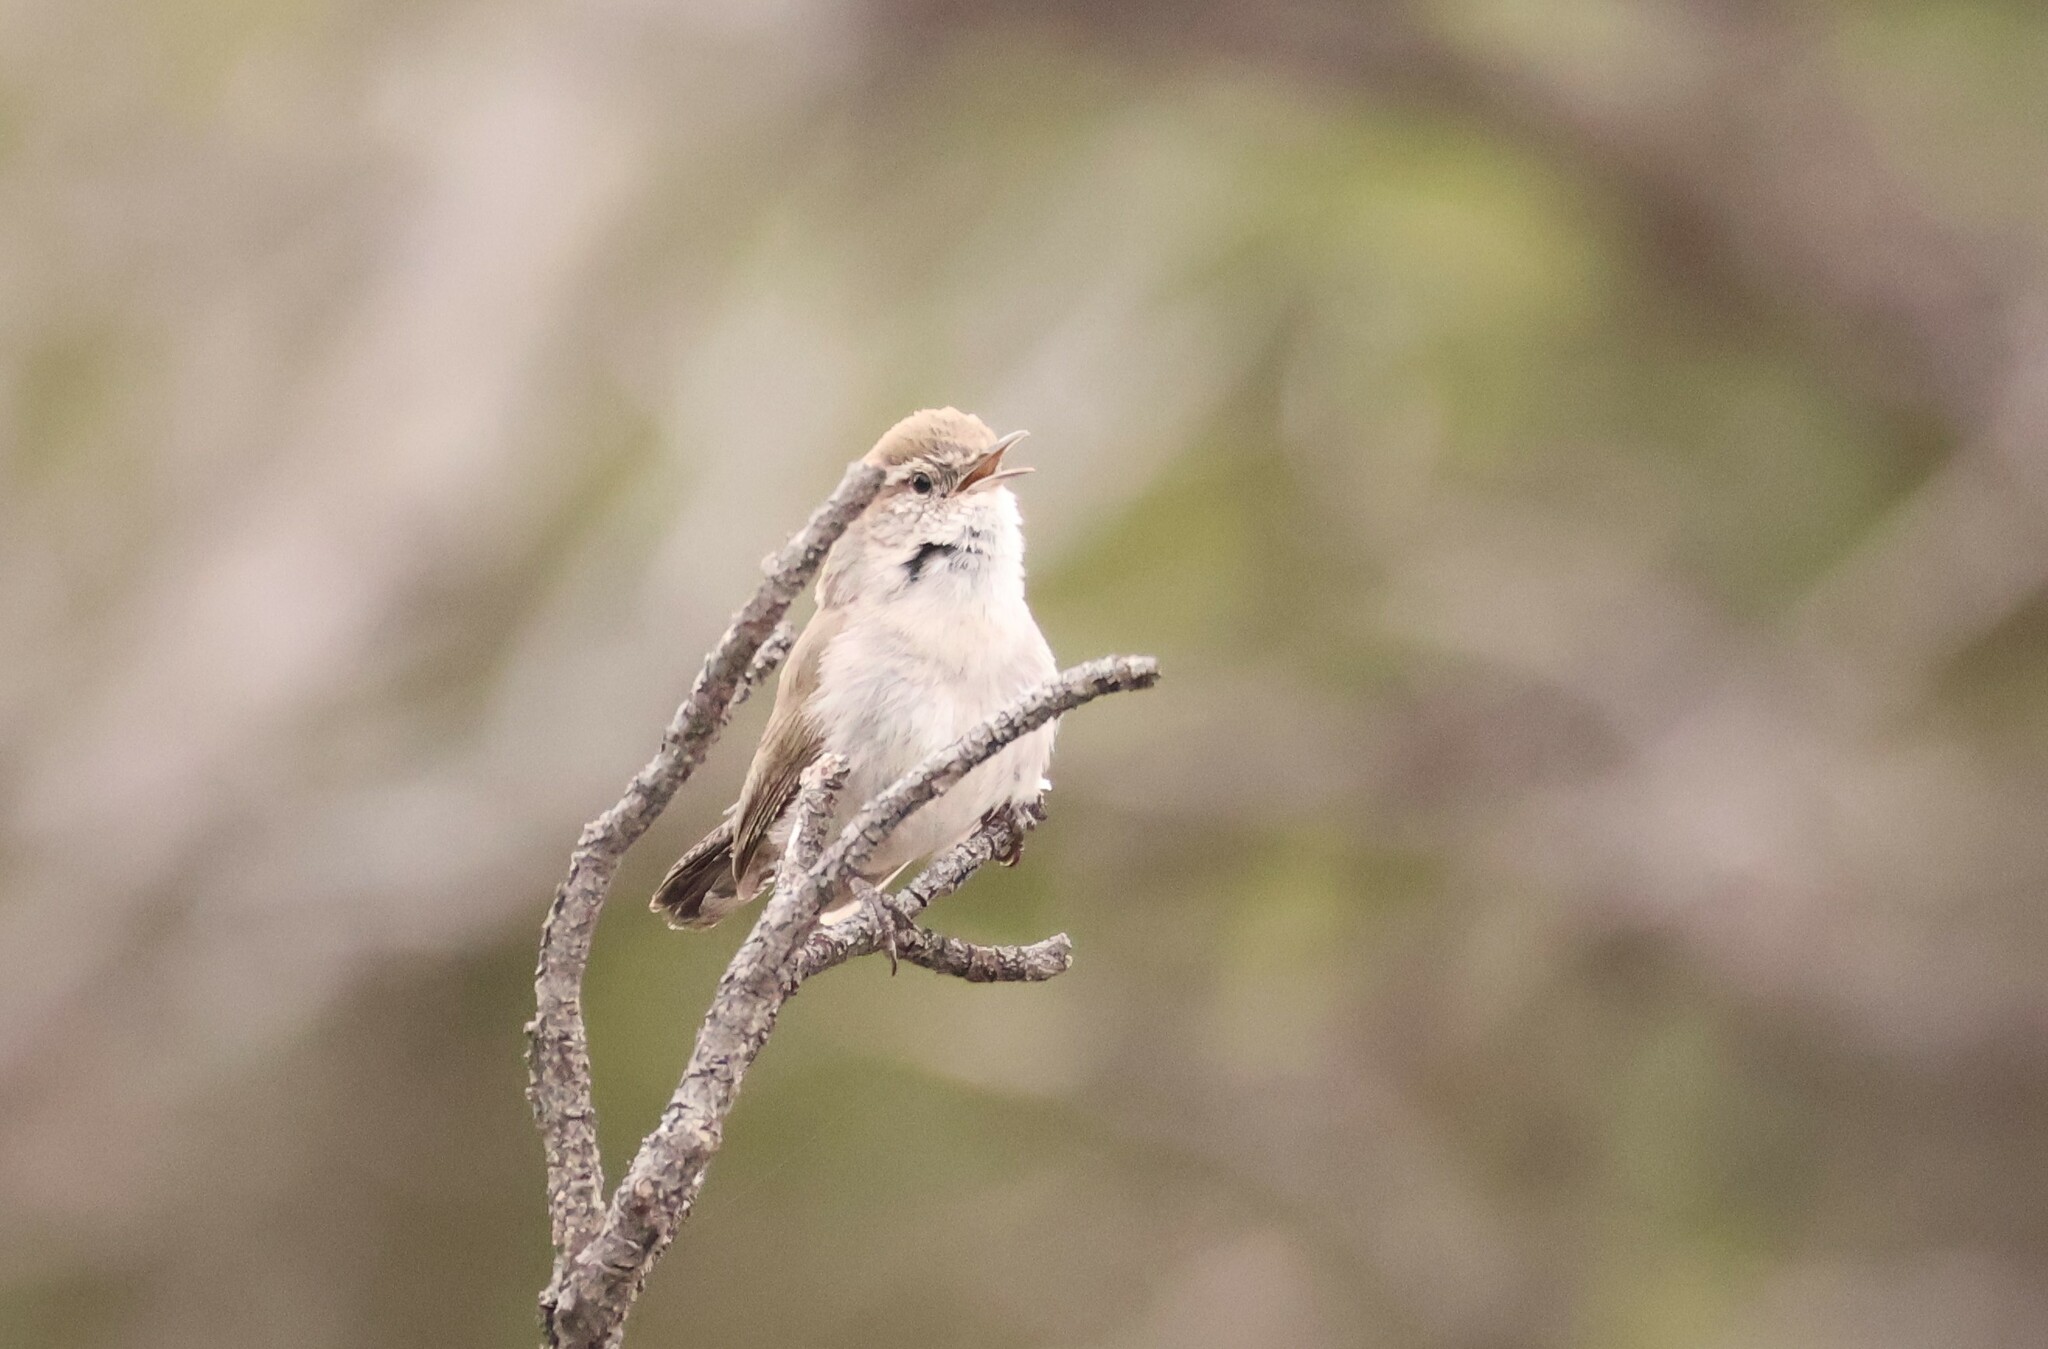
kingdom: Animalia
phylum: Chordata
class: Aves
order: Passeriformes
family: Troglodytidae
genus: Thryomanes
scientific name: Thryomanes bewickii
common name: Bewick's wren
